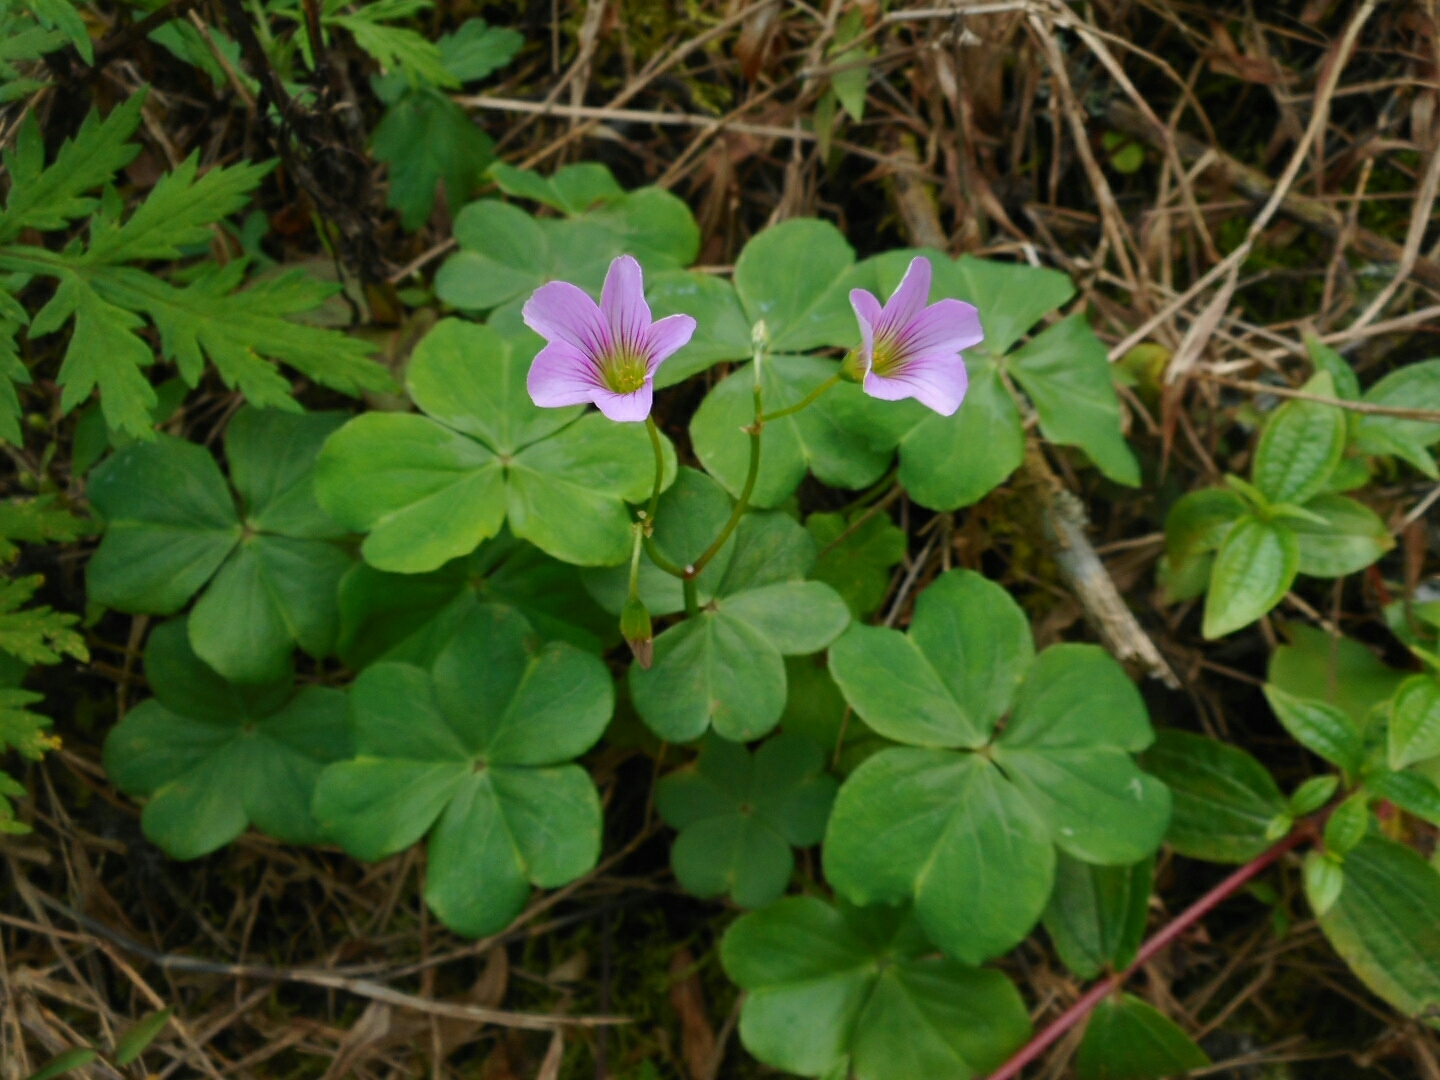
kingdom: Plantae
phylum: Tracheophyta
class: Magnoliopsida
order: Oxalidales
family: Oxalidaceae
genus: Oxalis
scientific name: Oxalis debilis
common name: Large-flowered pink-sorrel
